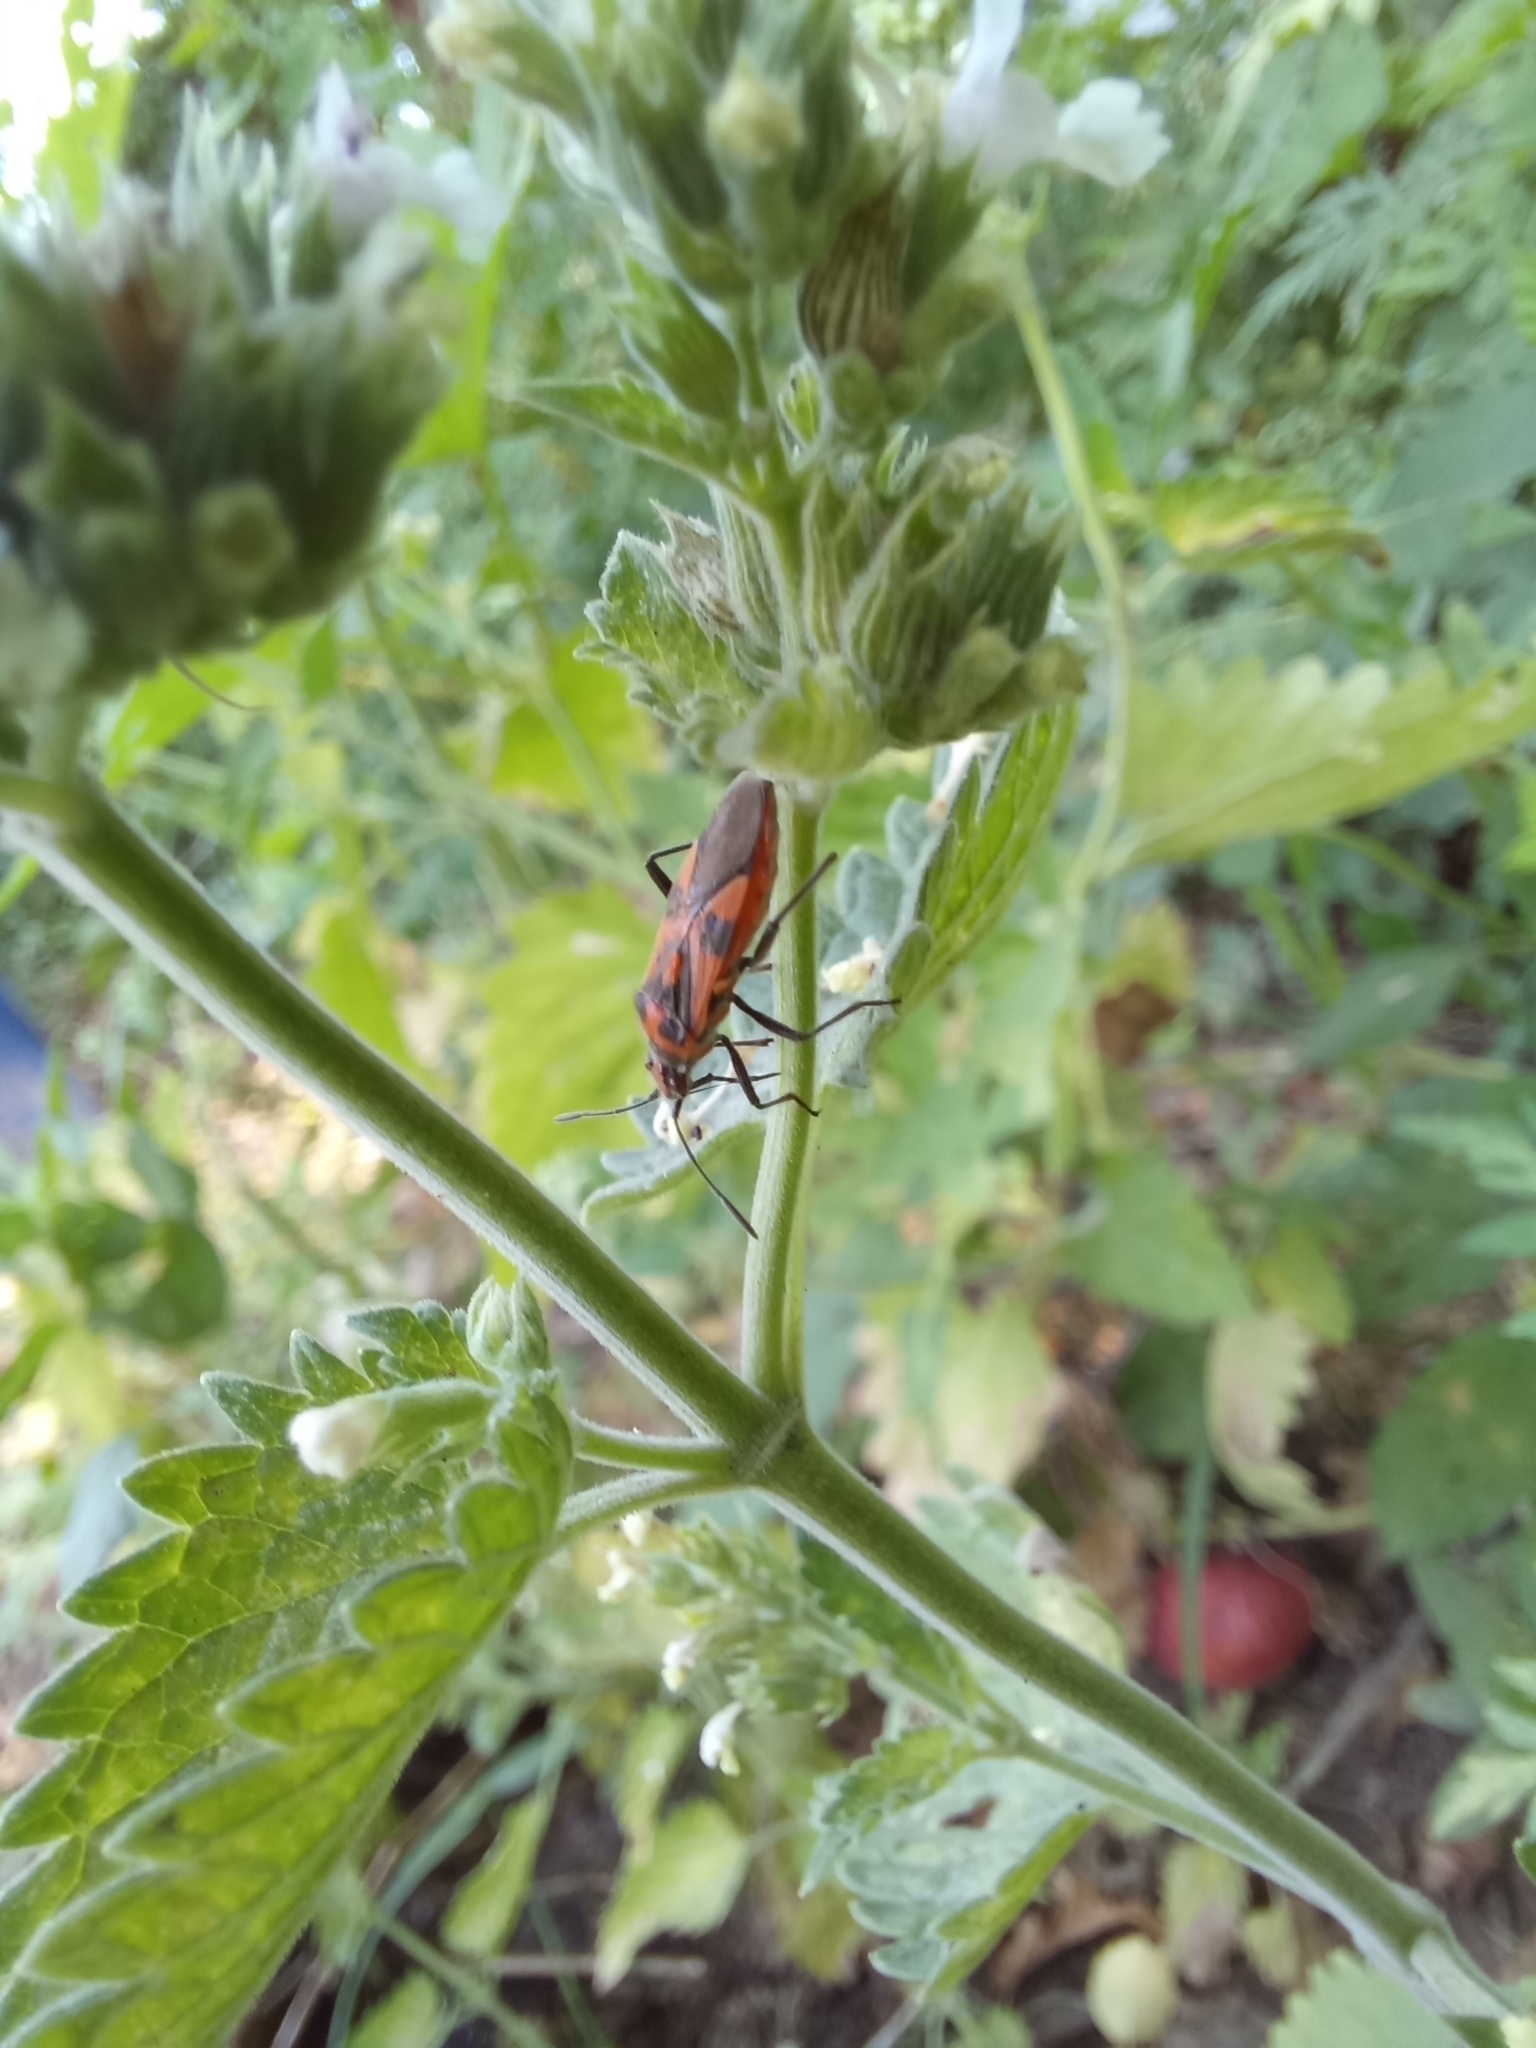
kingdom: Animalia
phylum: Arthropoda
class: Insecta
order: Hemiptera
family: Rhopalidae
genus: Corizus
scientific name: Corizus hyoscyami
